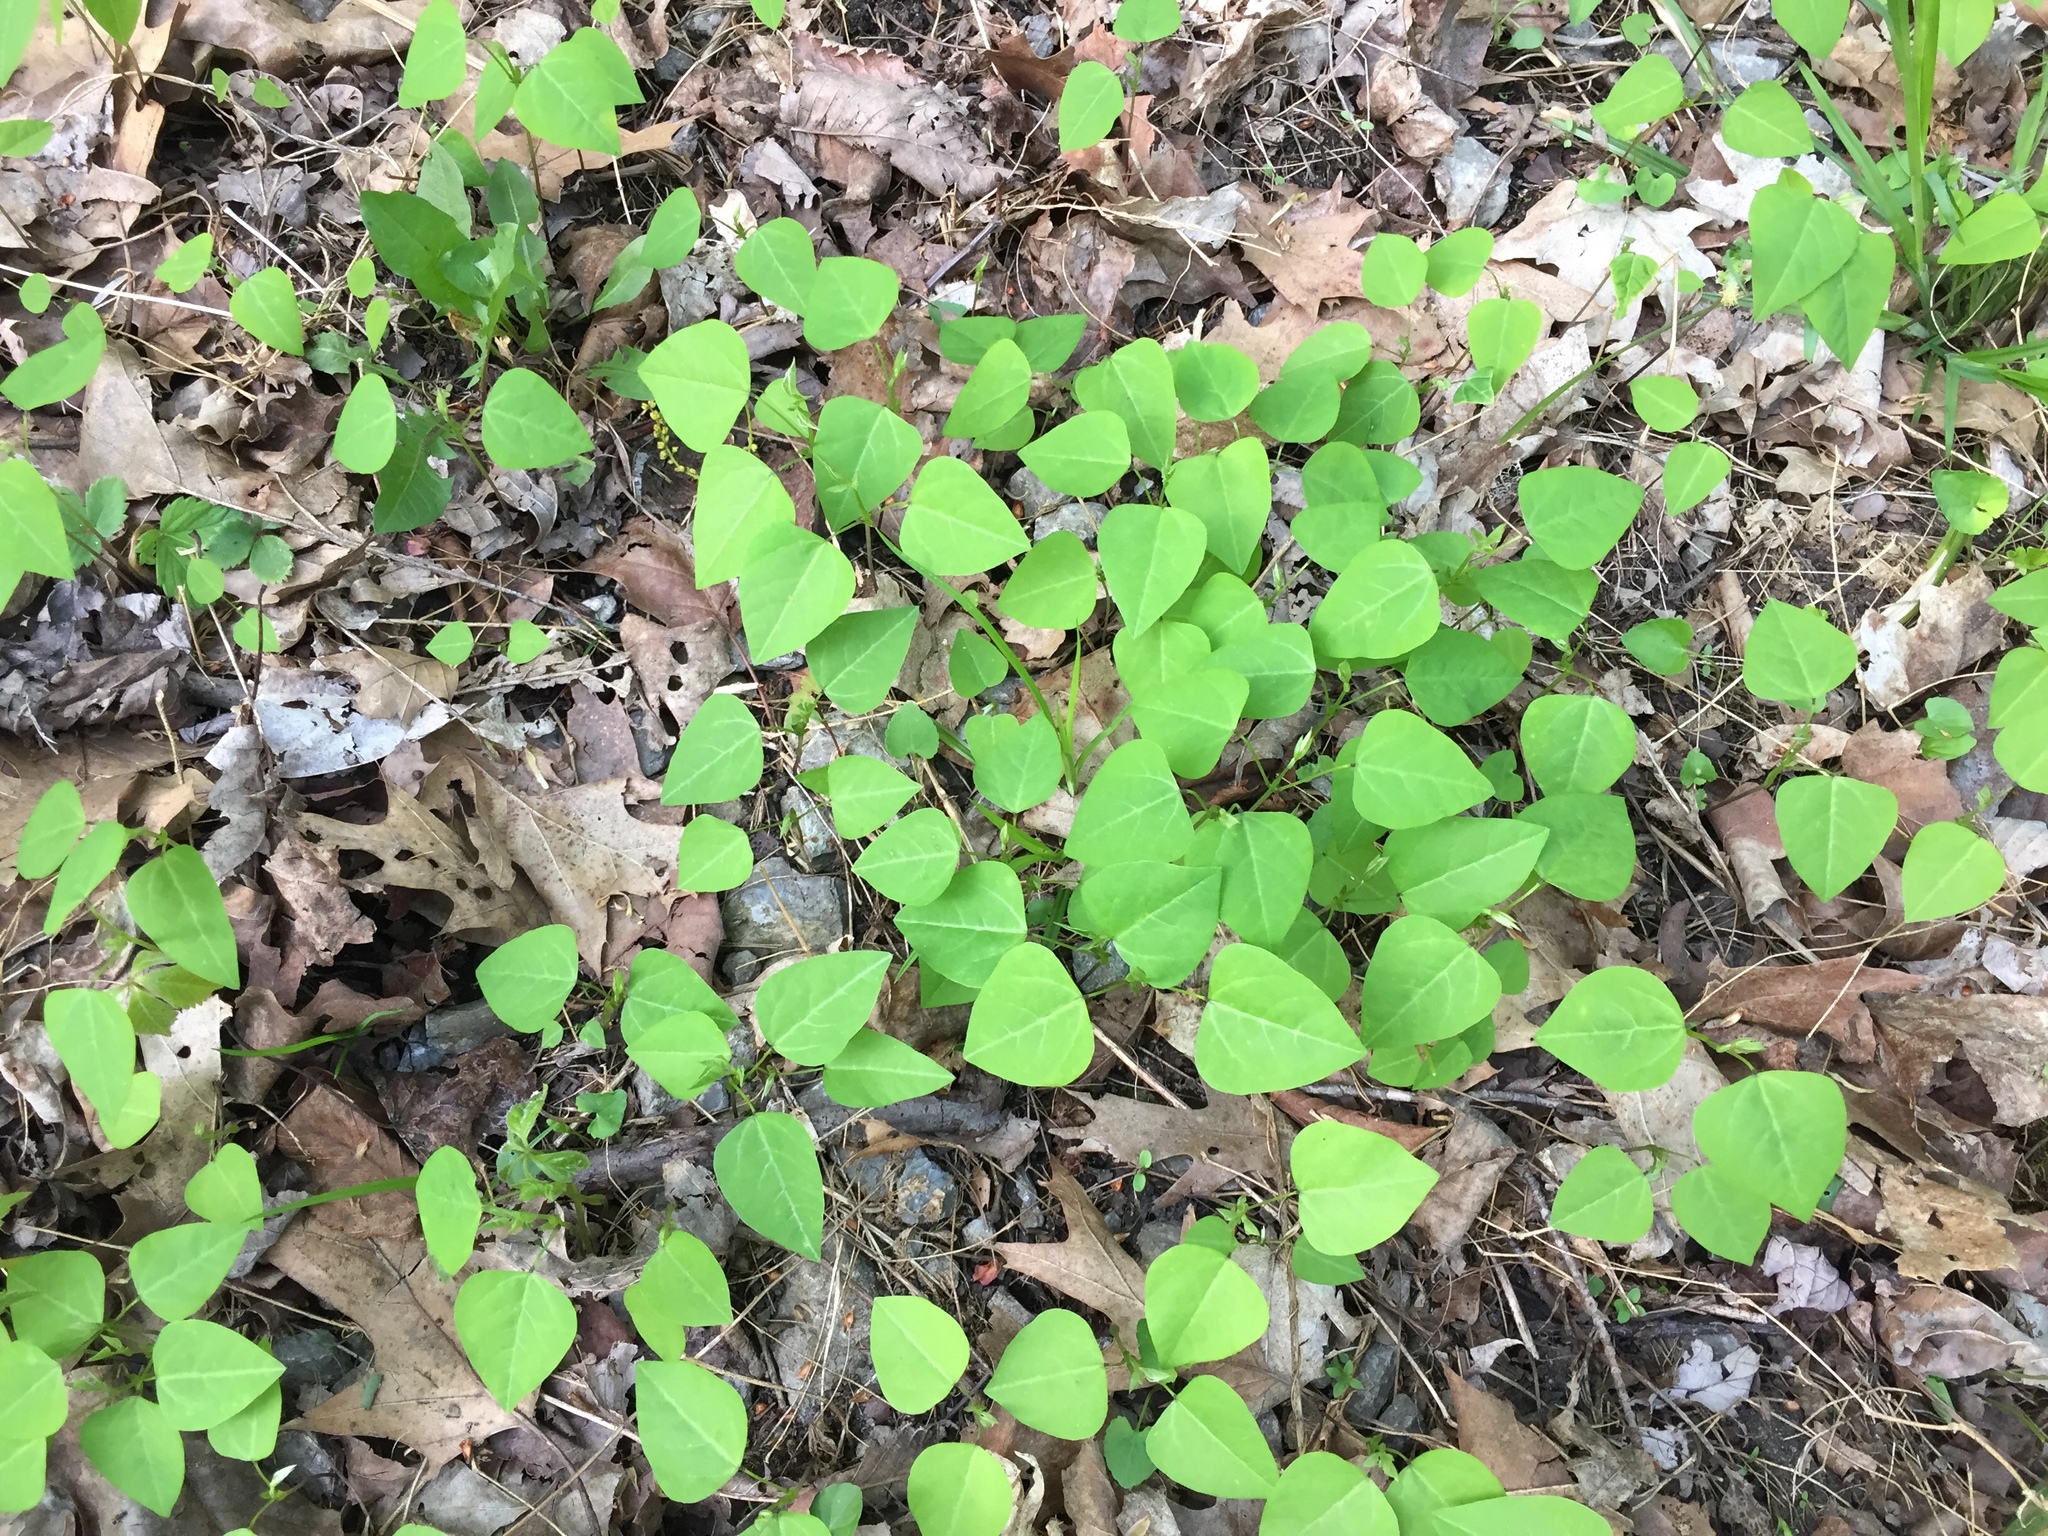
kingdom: Plantae
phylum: Tracheophyta
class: Magnoliopsida
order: Fabales
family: Fabaceae
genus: Amphicarpaea
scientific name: Amphicarpaea bracteata
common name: American hog peanut
